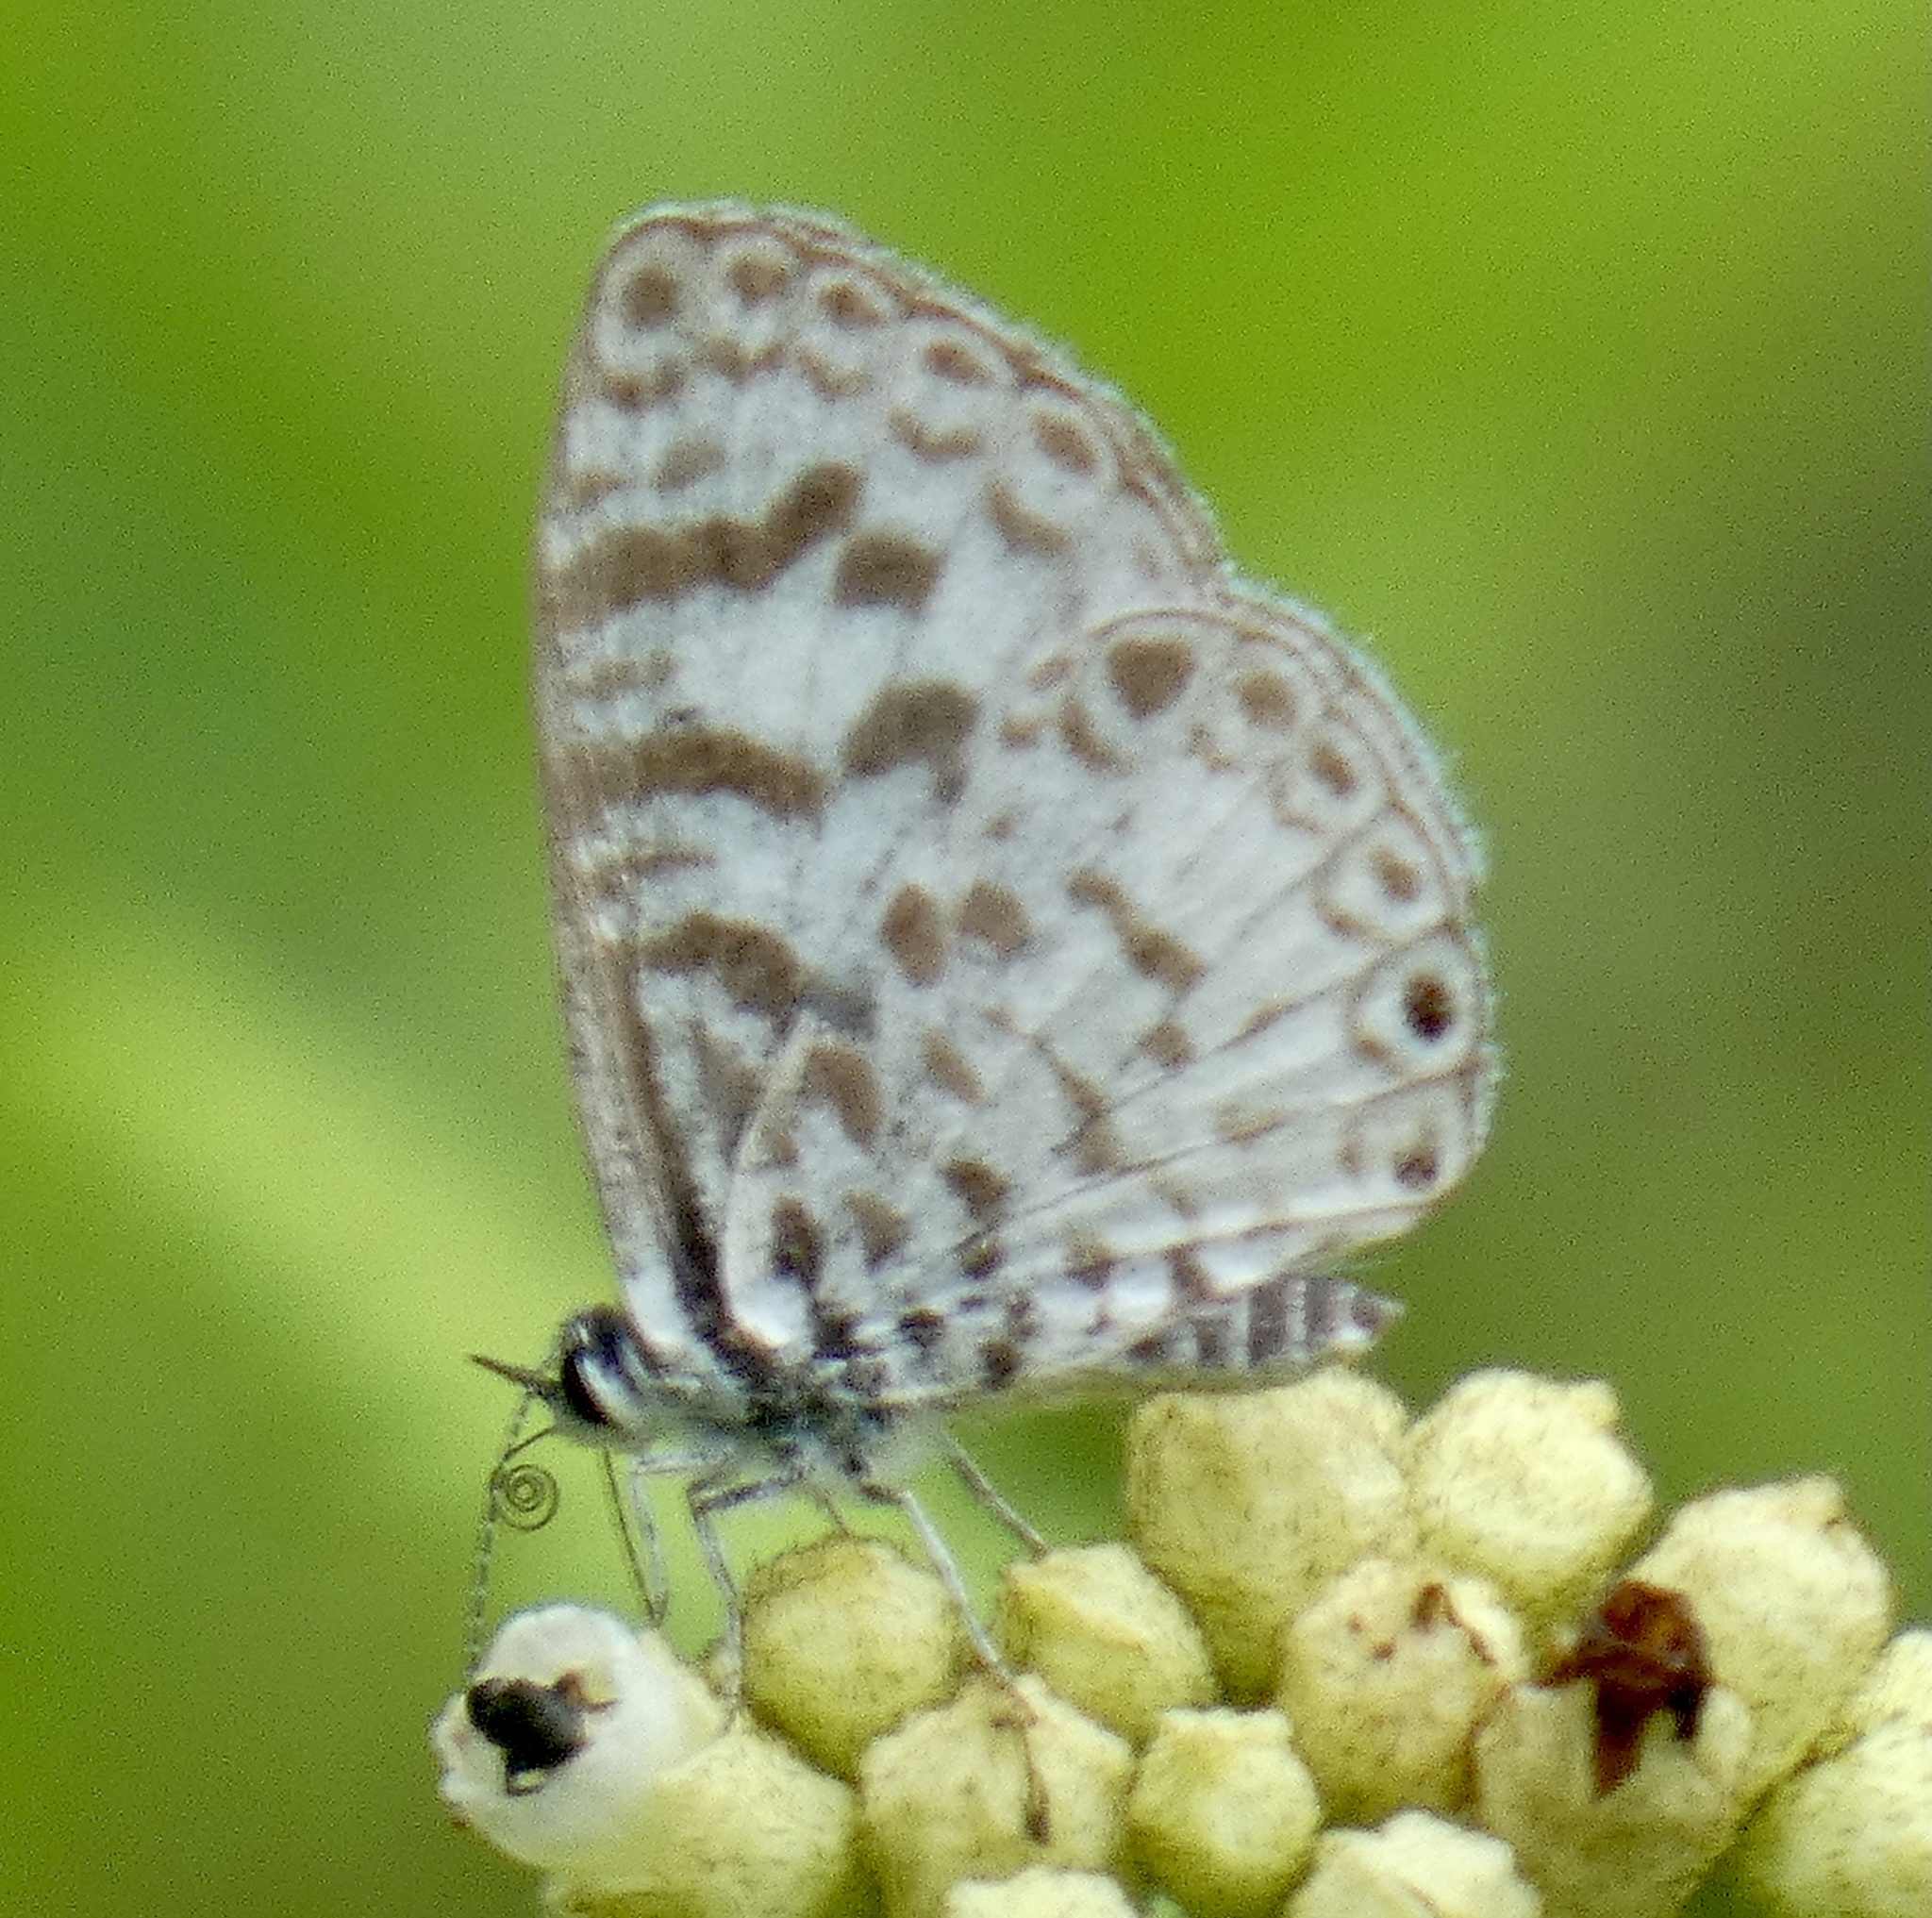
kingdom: Animalia
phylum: Arthropoda
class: Insecta
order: Lepidoptera
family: Lycaenidae
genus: Leptotes
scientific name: Leptotes cassius
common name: Cassius blue
